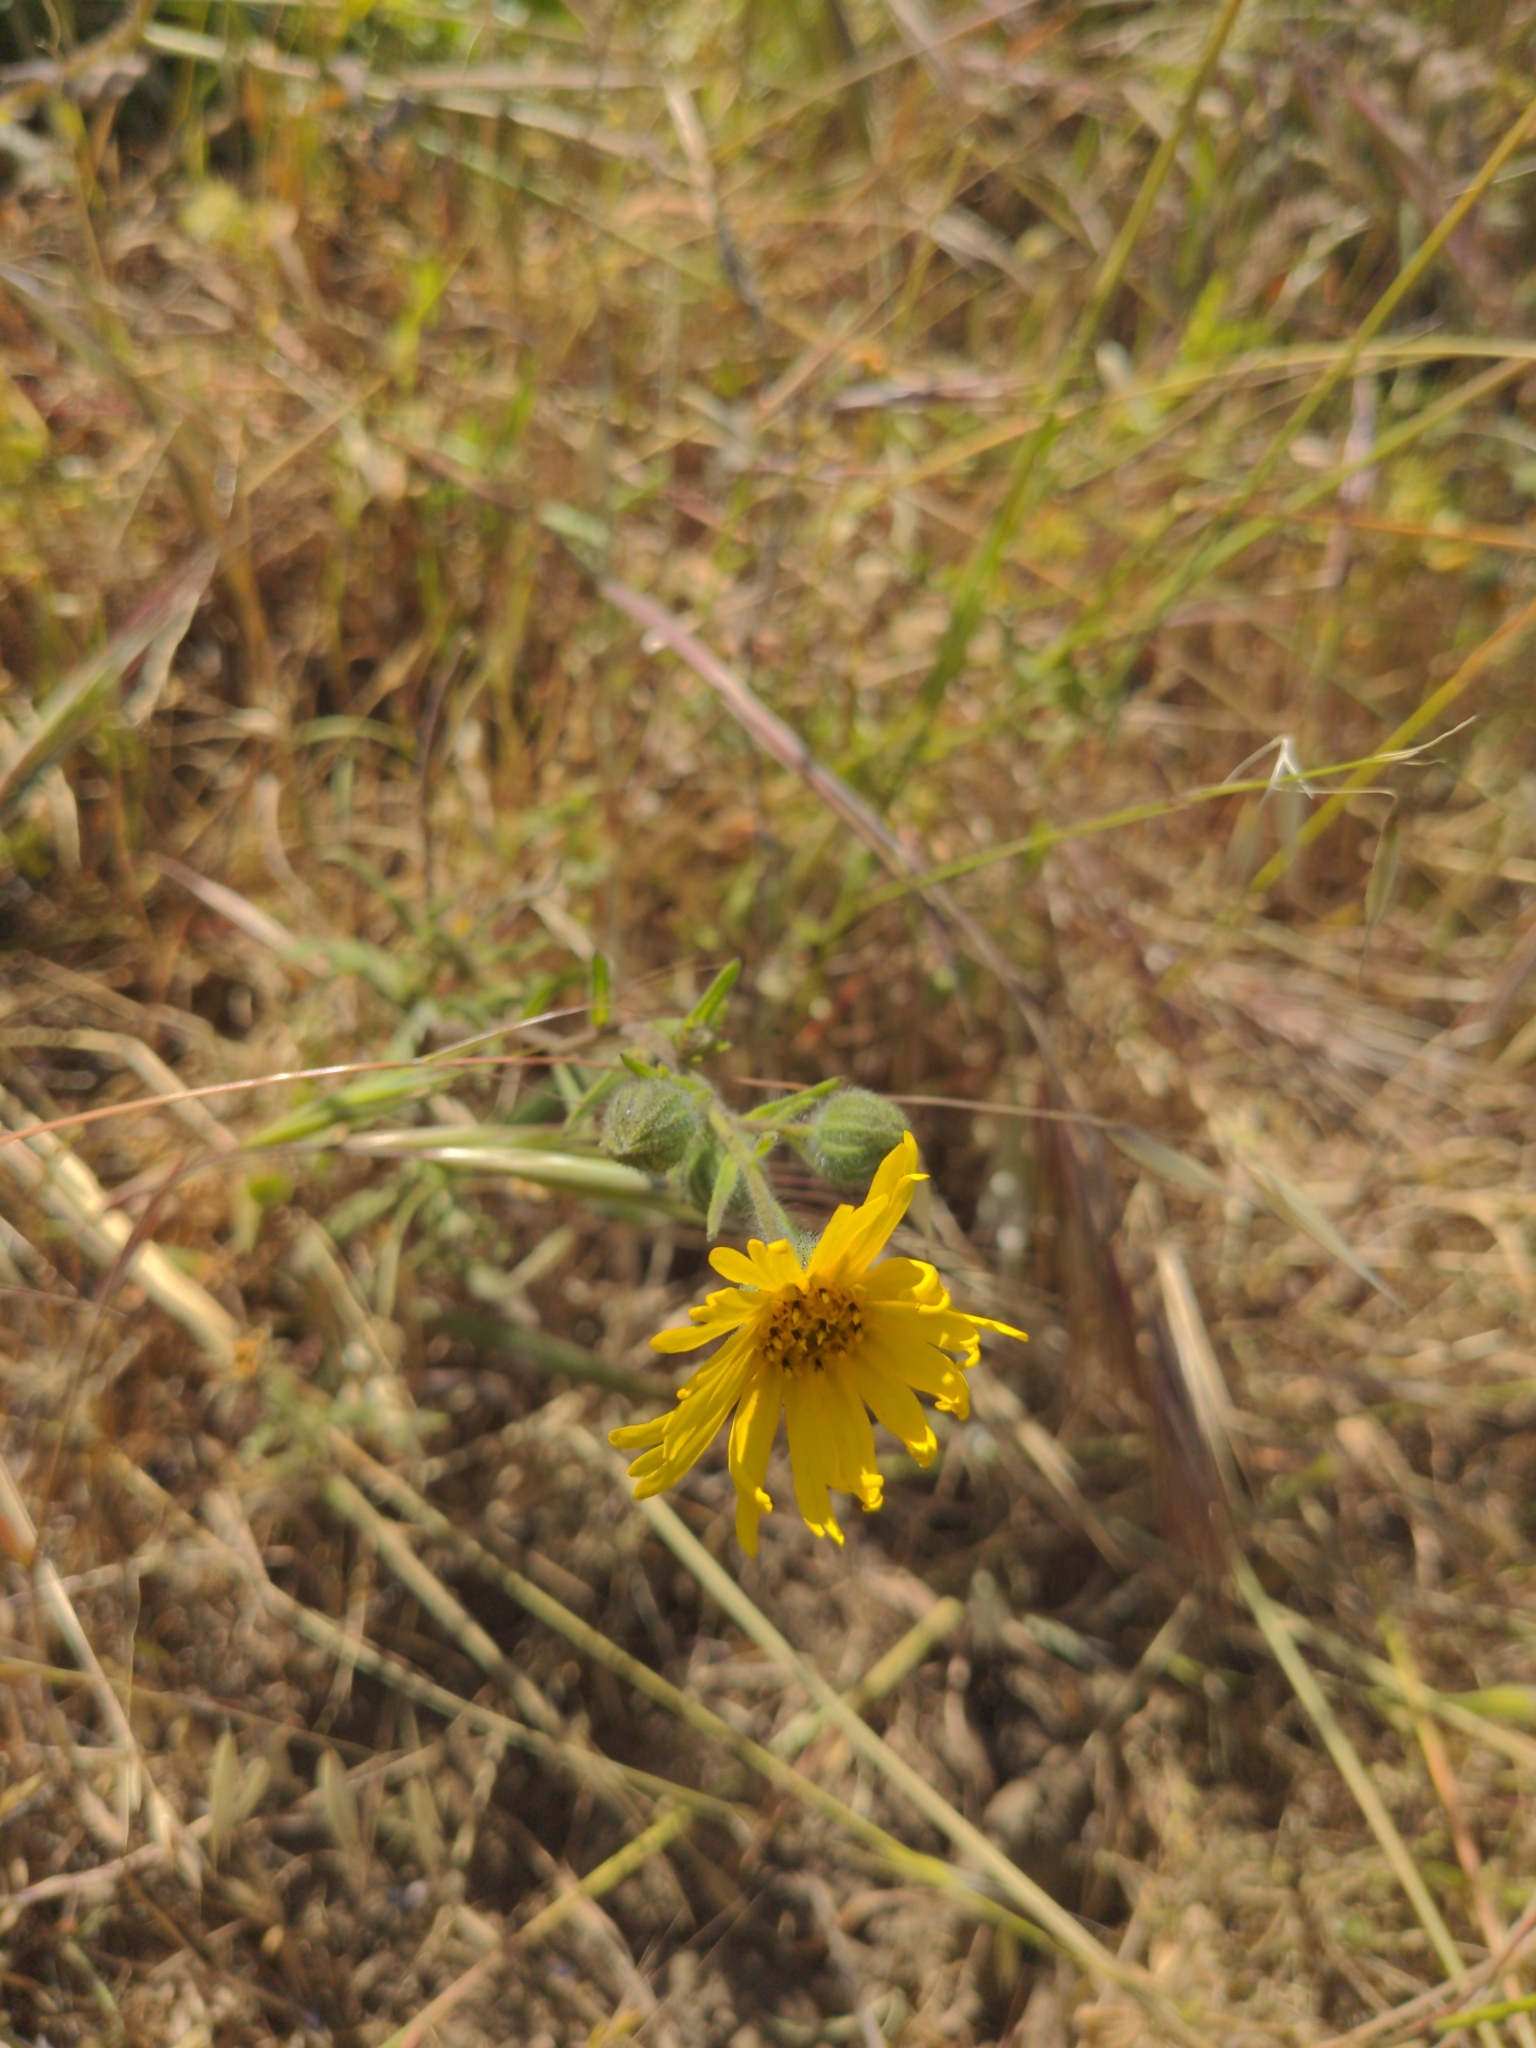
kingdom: Plantae
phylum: Tracheophyta
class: Magnoliopsida
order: Asterales
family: Asteraceae
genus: Madia
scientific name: Madia elegans
